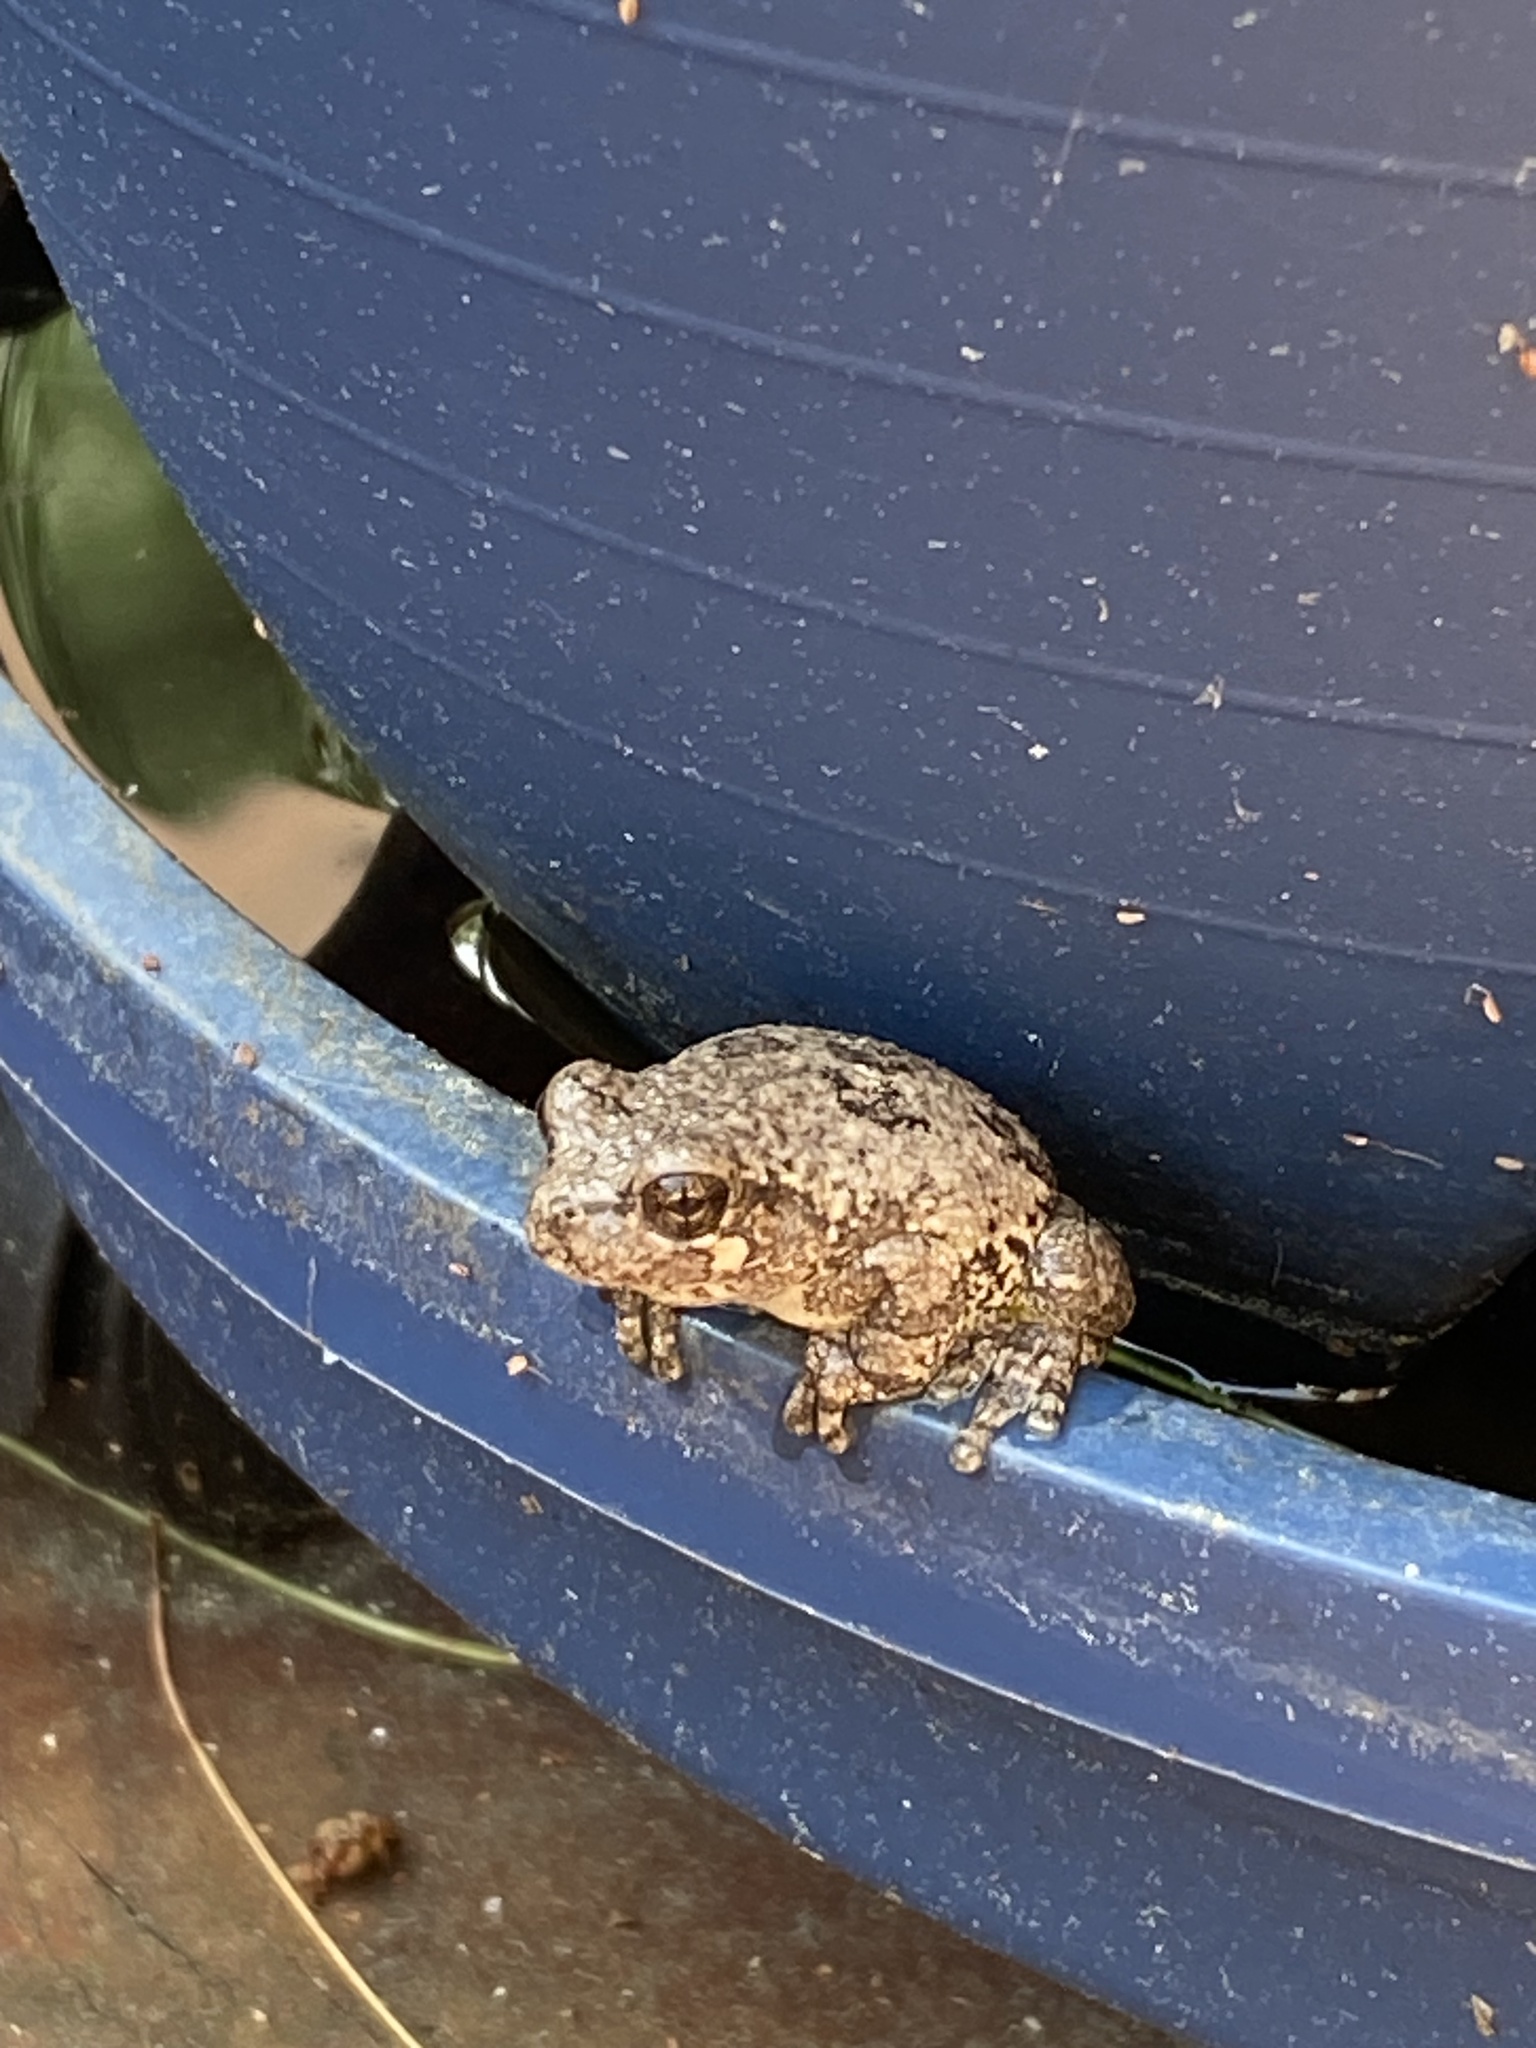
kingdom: Animalia
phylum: Chordata
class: Amphibia
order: Anura
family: Hylidae
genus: Hyla
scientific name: Hyla
